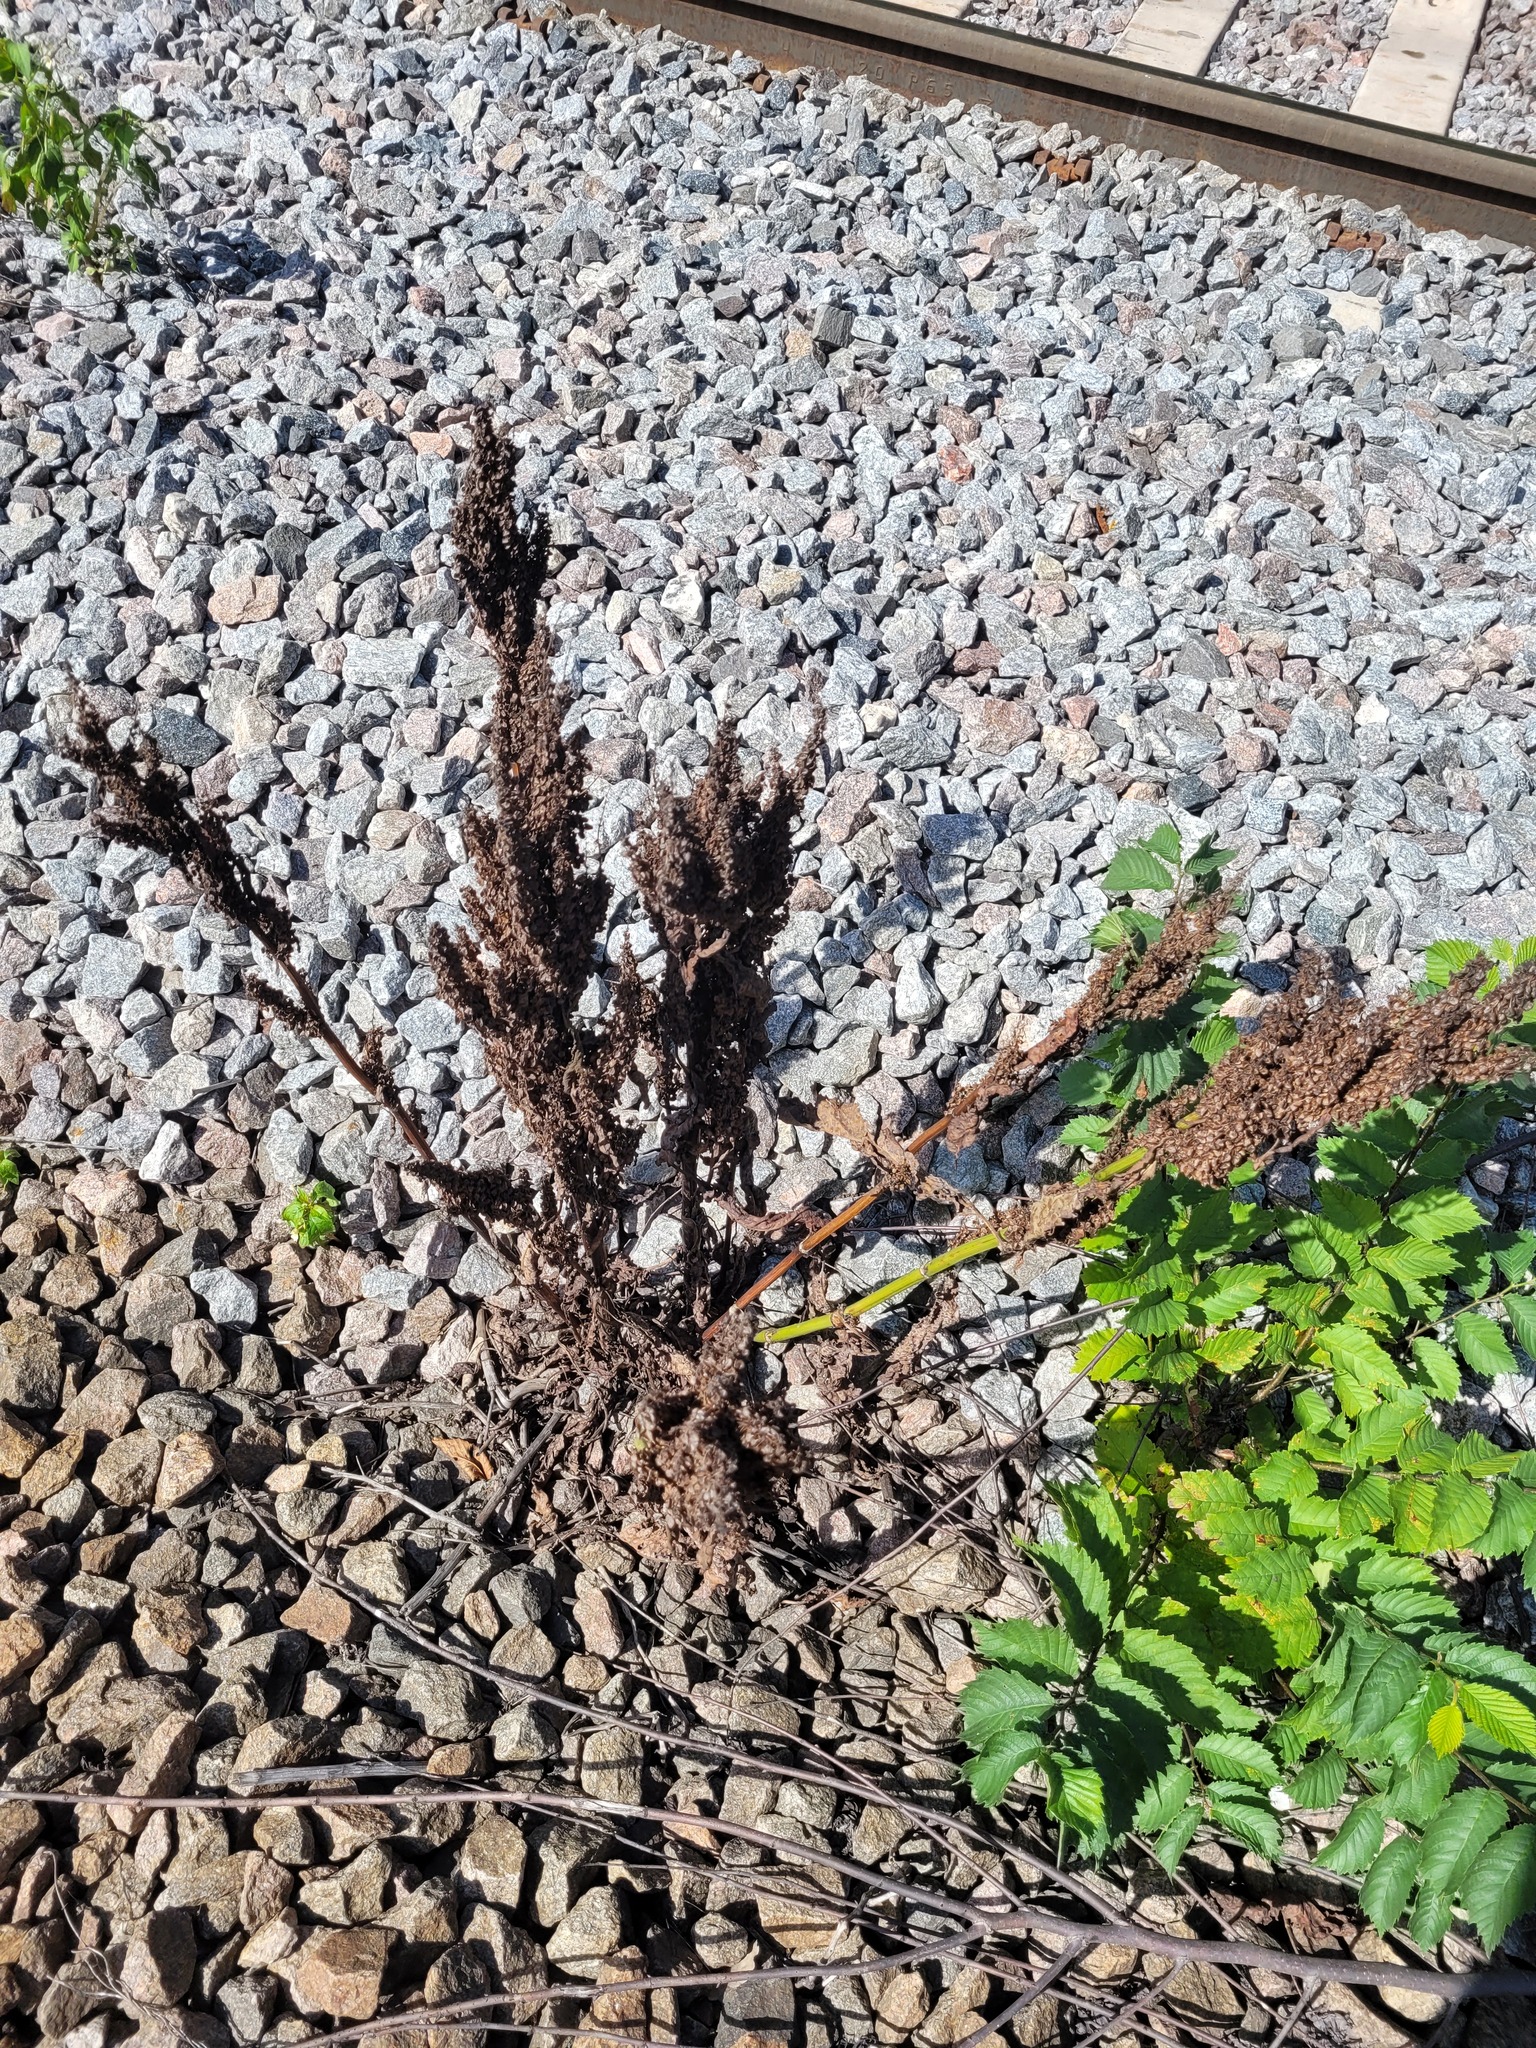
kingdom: Plantae
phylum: Tracheophyta
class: Magnoliopsida
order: Caryophyllales
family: Polygonaceae
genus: Rumex
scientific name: Rumex pseudonatronatus
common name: Field dock
